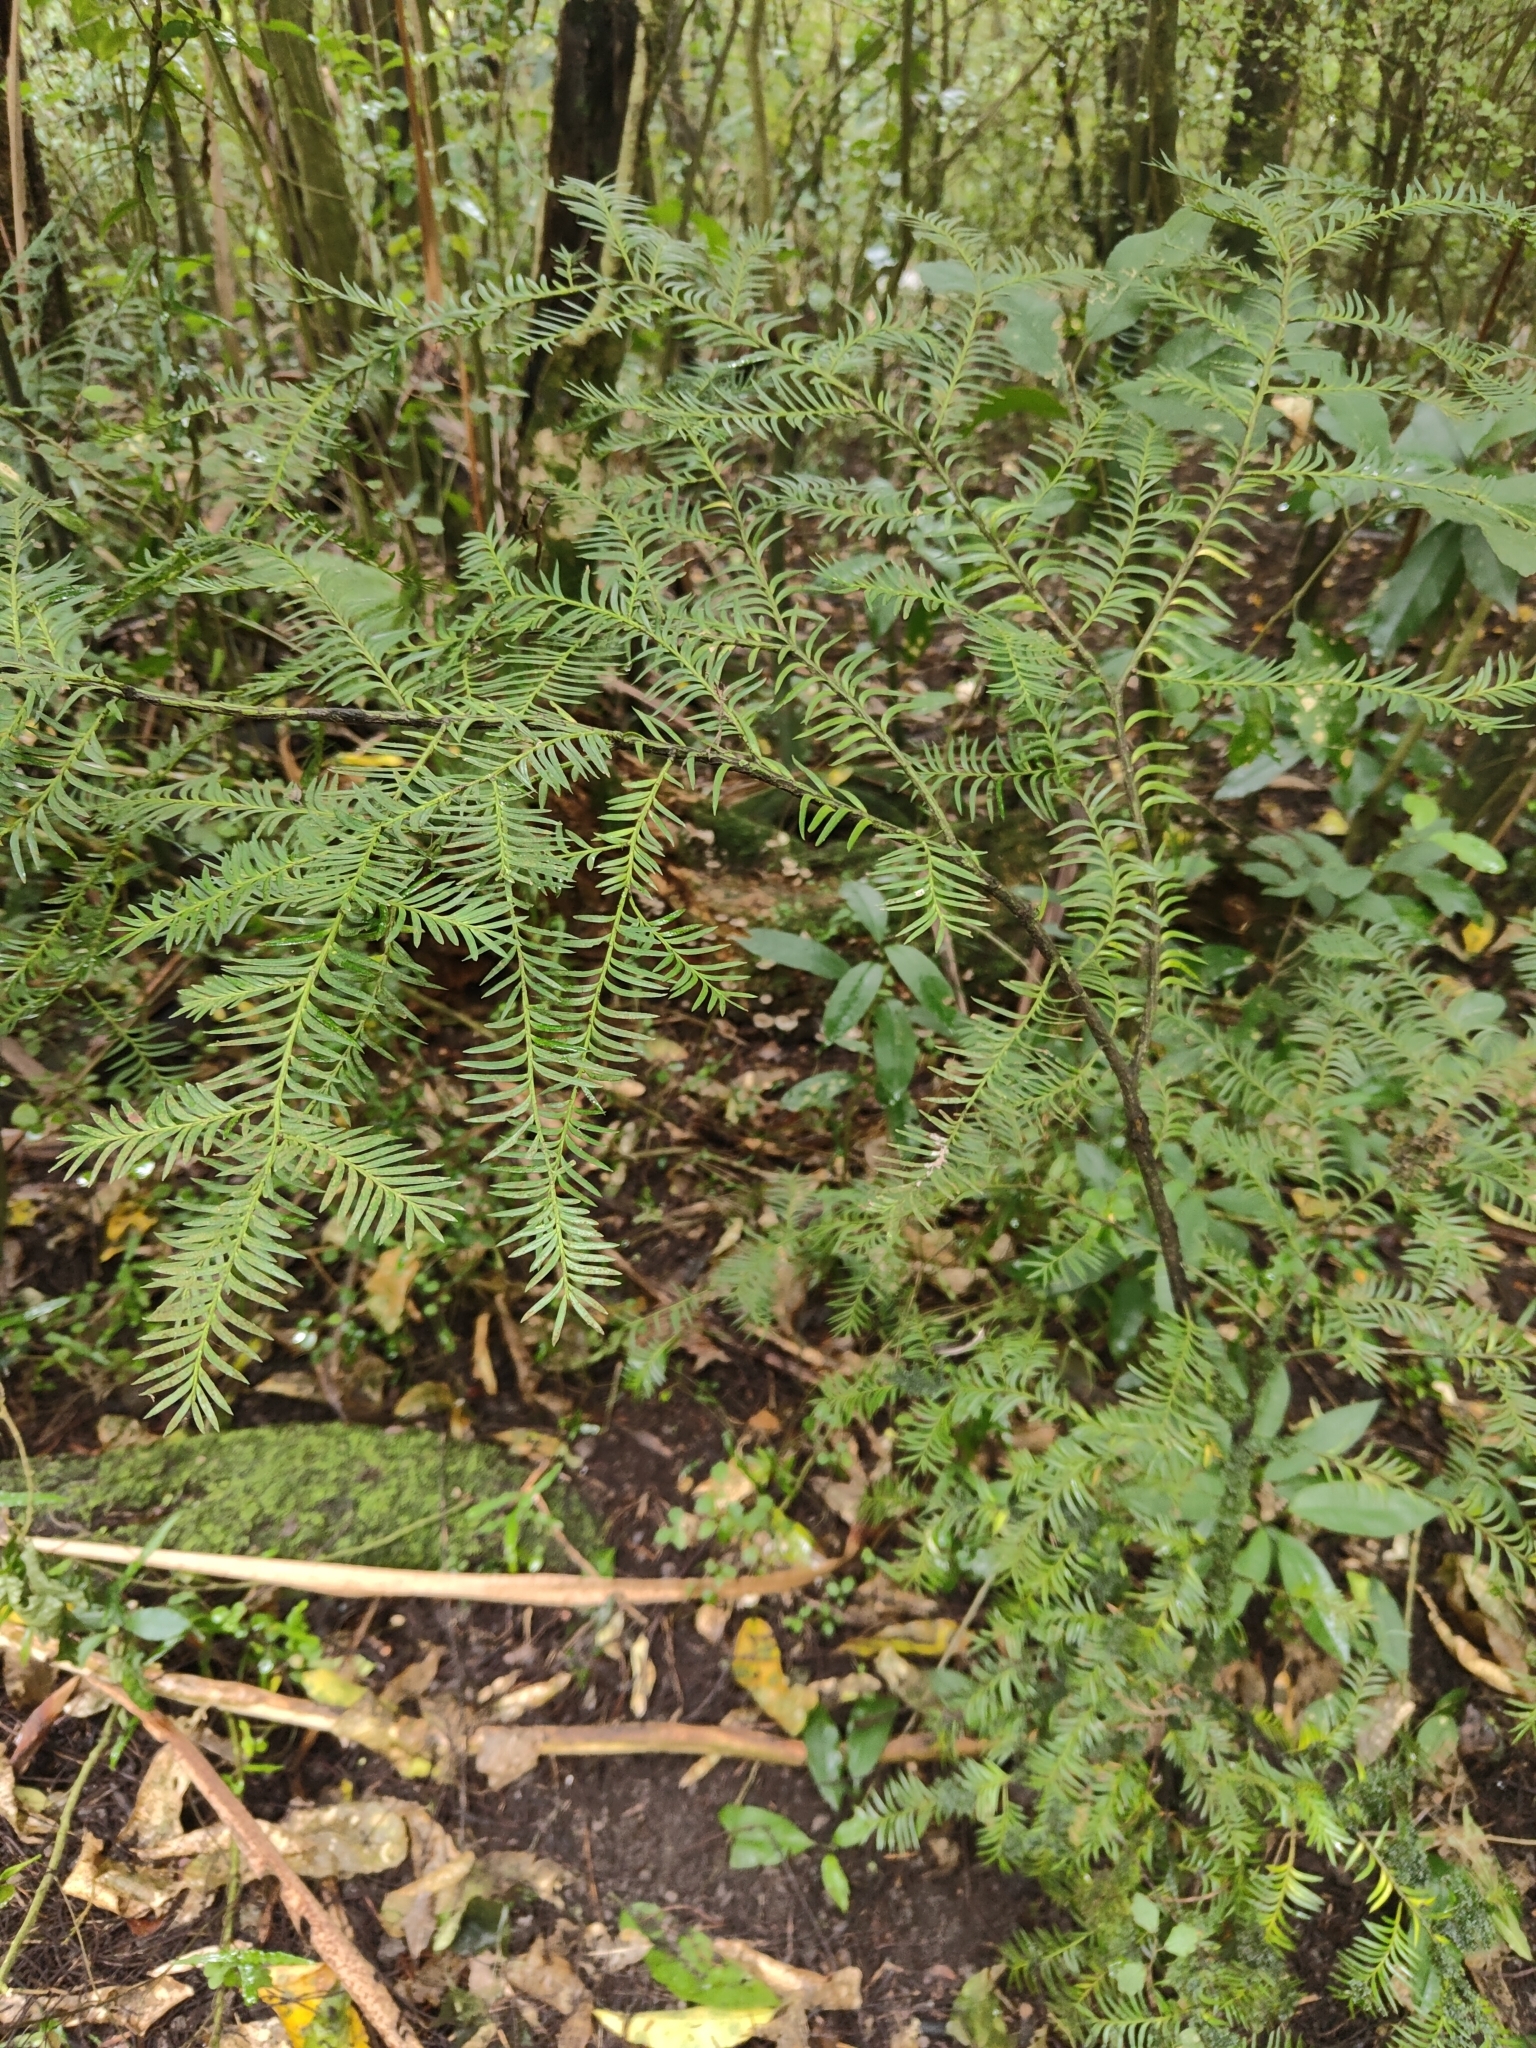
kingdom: Plantae
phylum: Tracheophyta
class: Pinopsida
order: Pinales
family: Podocarpaceae
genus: Prumnopitys
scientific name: Prumnopitys ferruginea
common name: Brown pine
